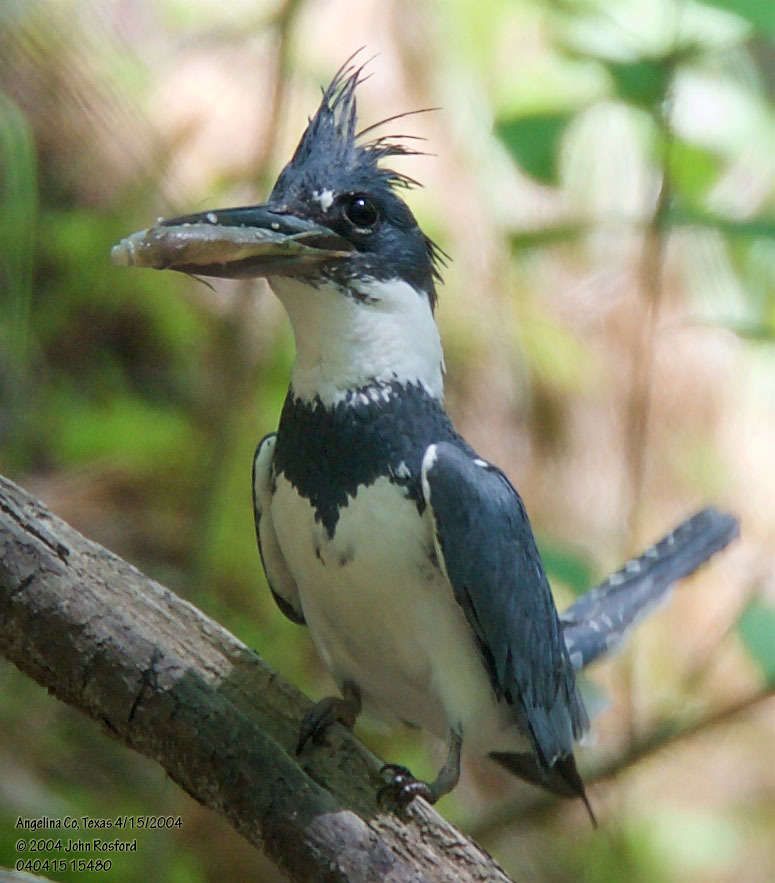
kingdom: Animalia
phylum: Chordata
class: Aves
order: Coraciiformes
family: Alcedinidae
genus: Megaceryle
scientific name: Megaceryle alcyon
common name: Belted kingfisher
